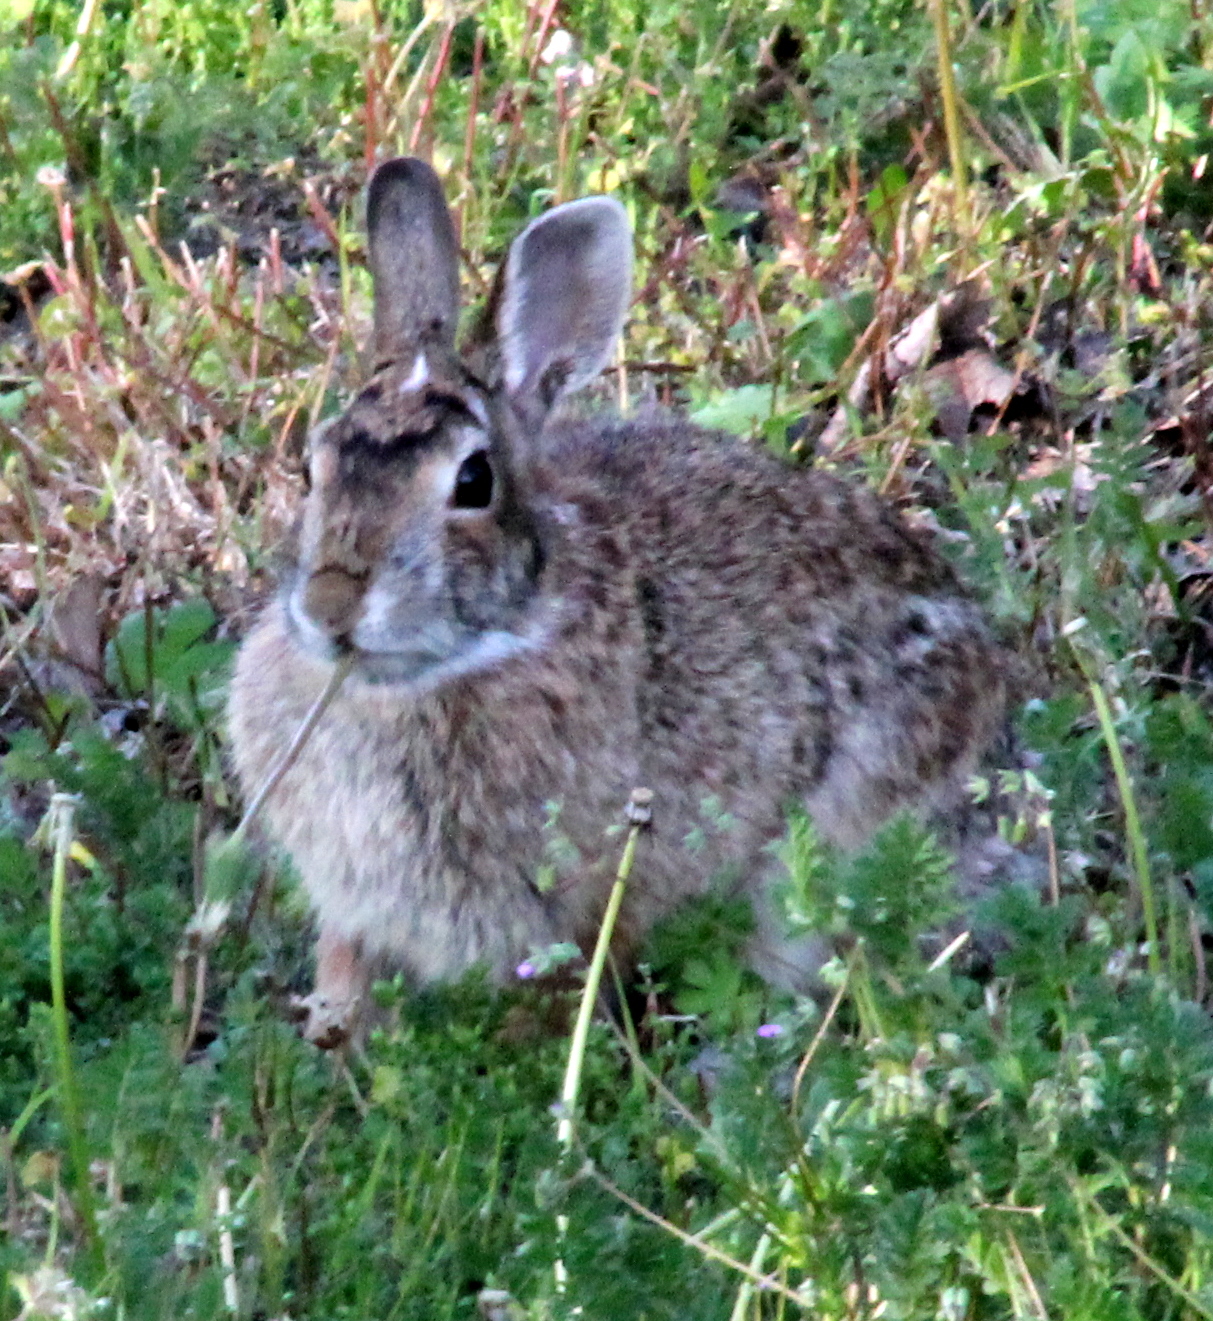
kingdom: Animalia
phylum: Chordata
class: Mammalia
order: Lagomorpha
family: Leporidae
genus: Sylvilagus
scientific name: Sylvilagus floridanus
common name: Eastern cottontail
